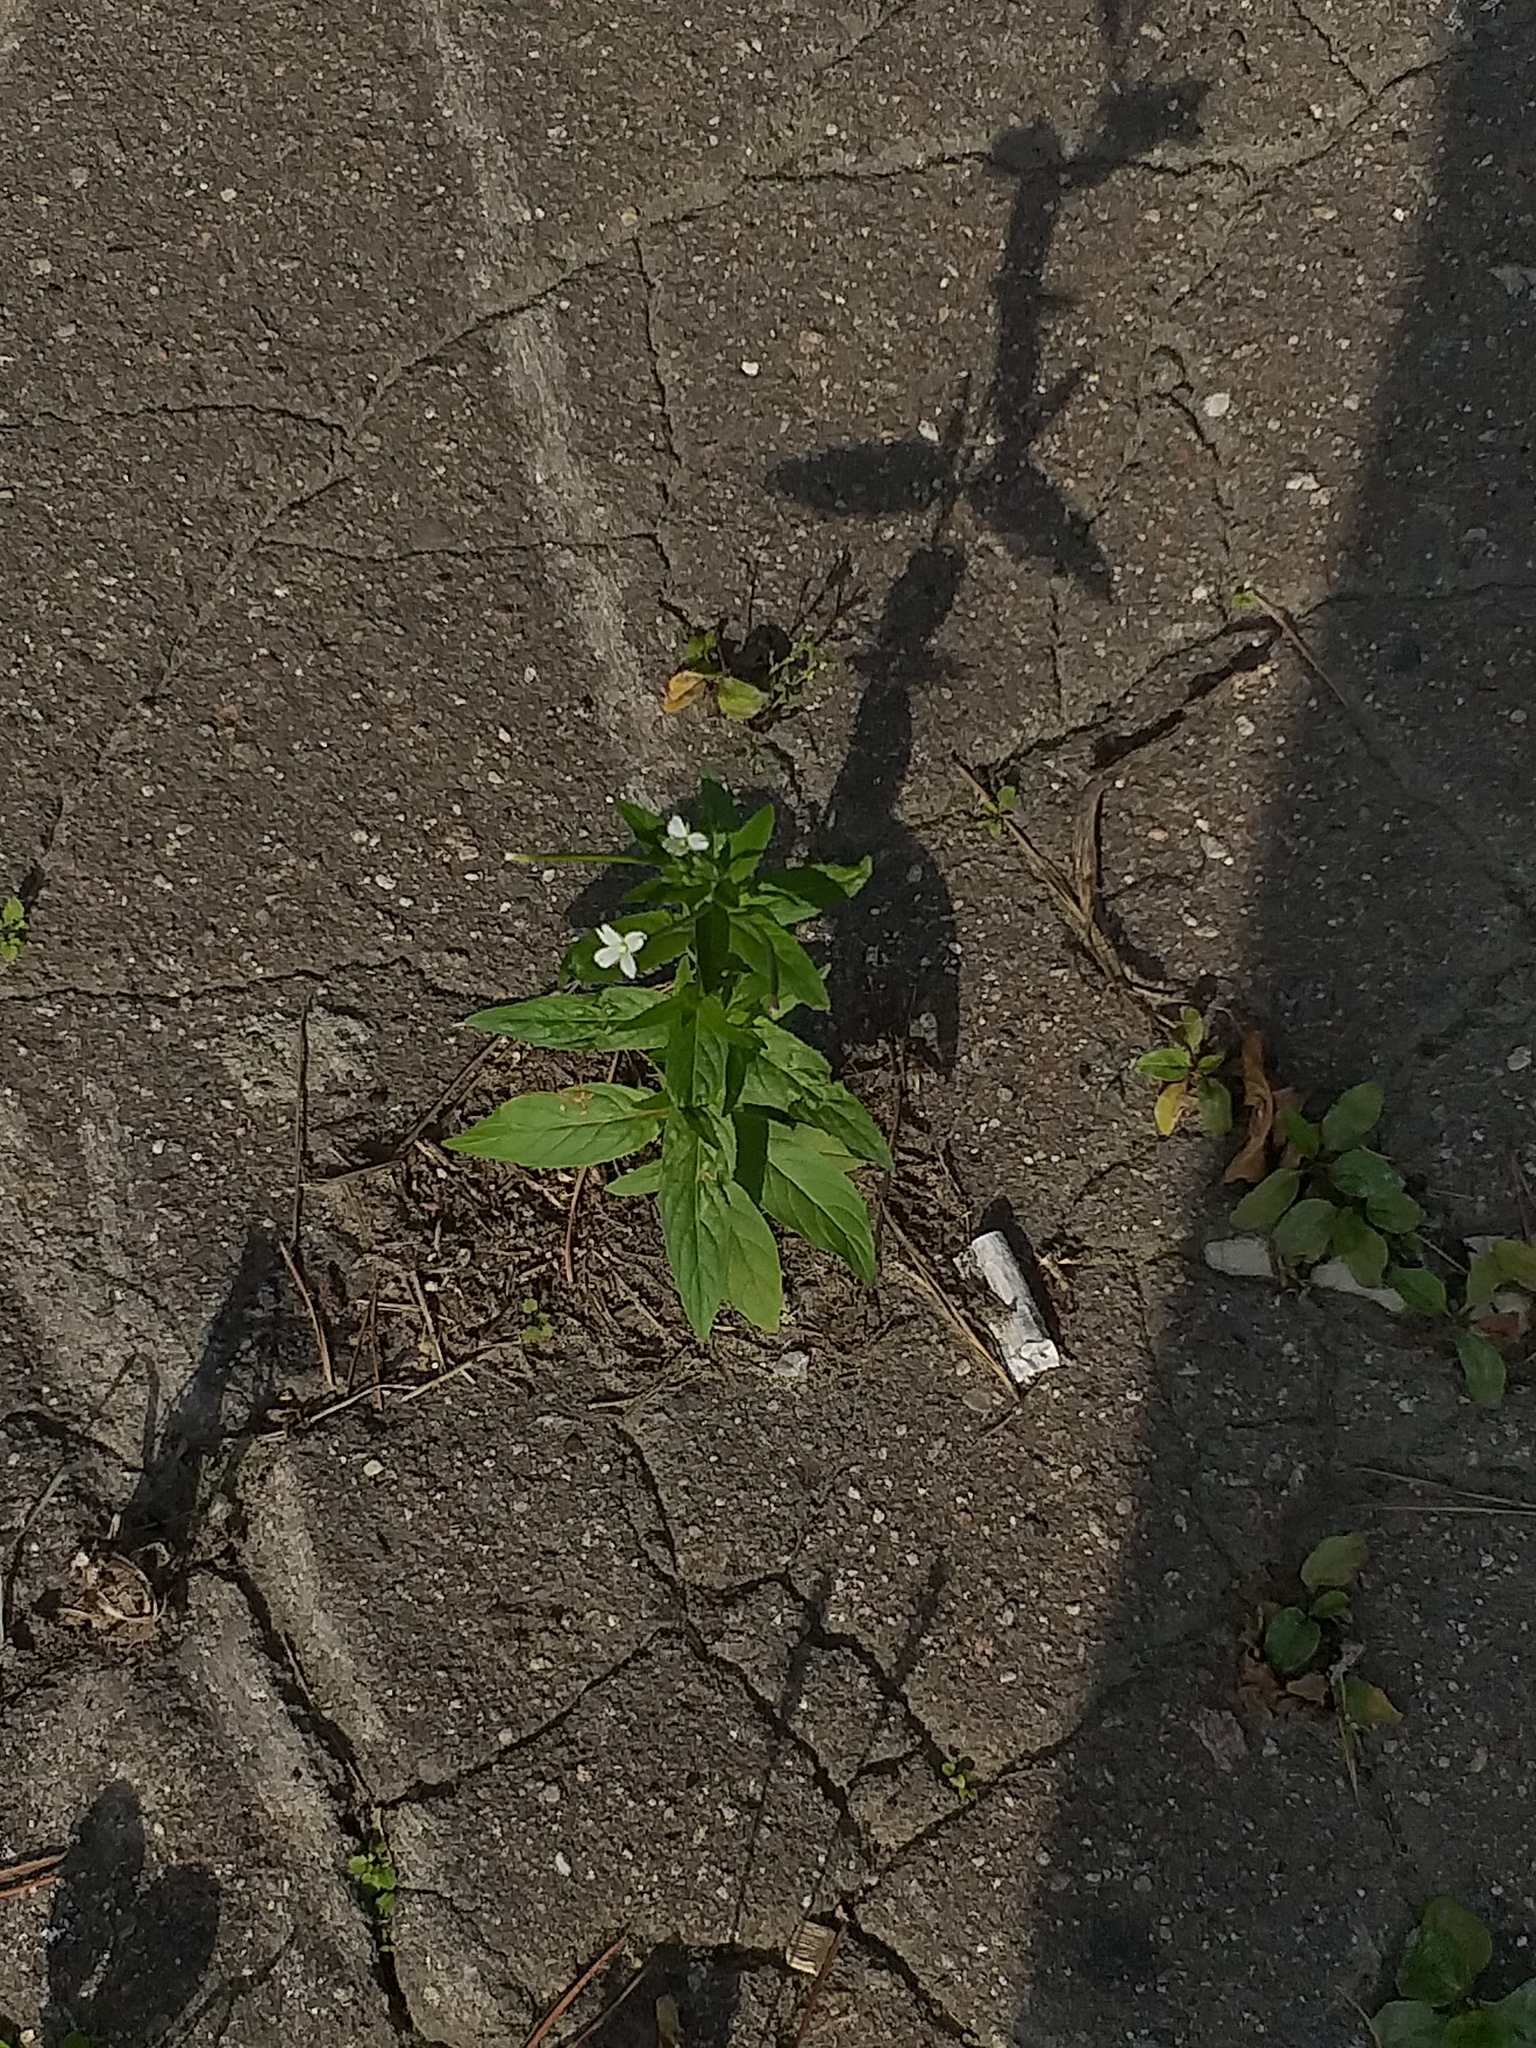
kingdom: Plantae
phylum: Tracheophyta
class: Magnoliopsida
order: Myrtales
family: Onagraceae
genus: Epilobium
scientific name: Epilobium pseudorubescens
